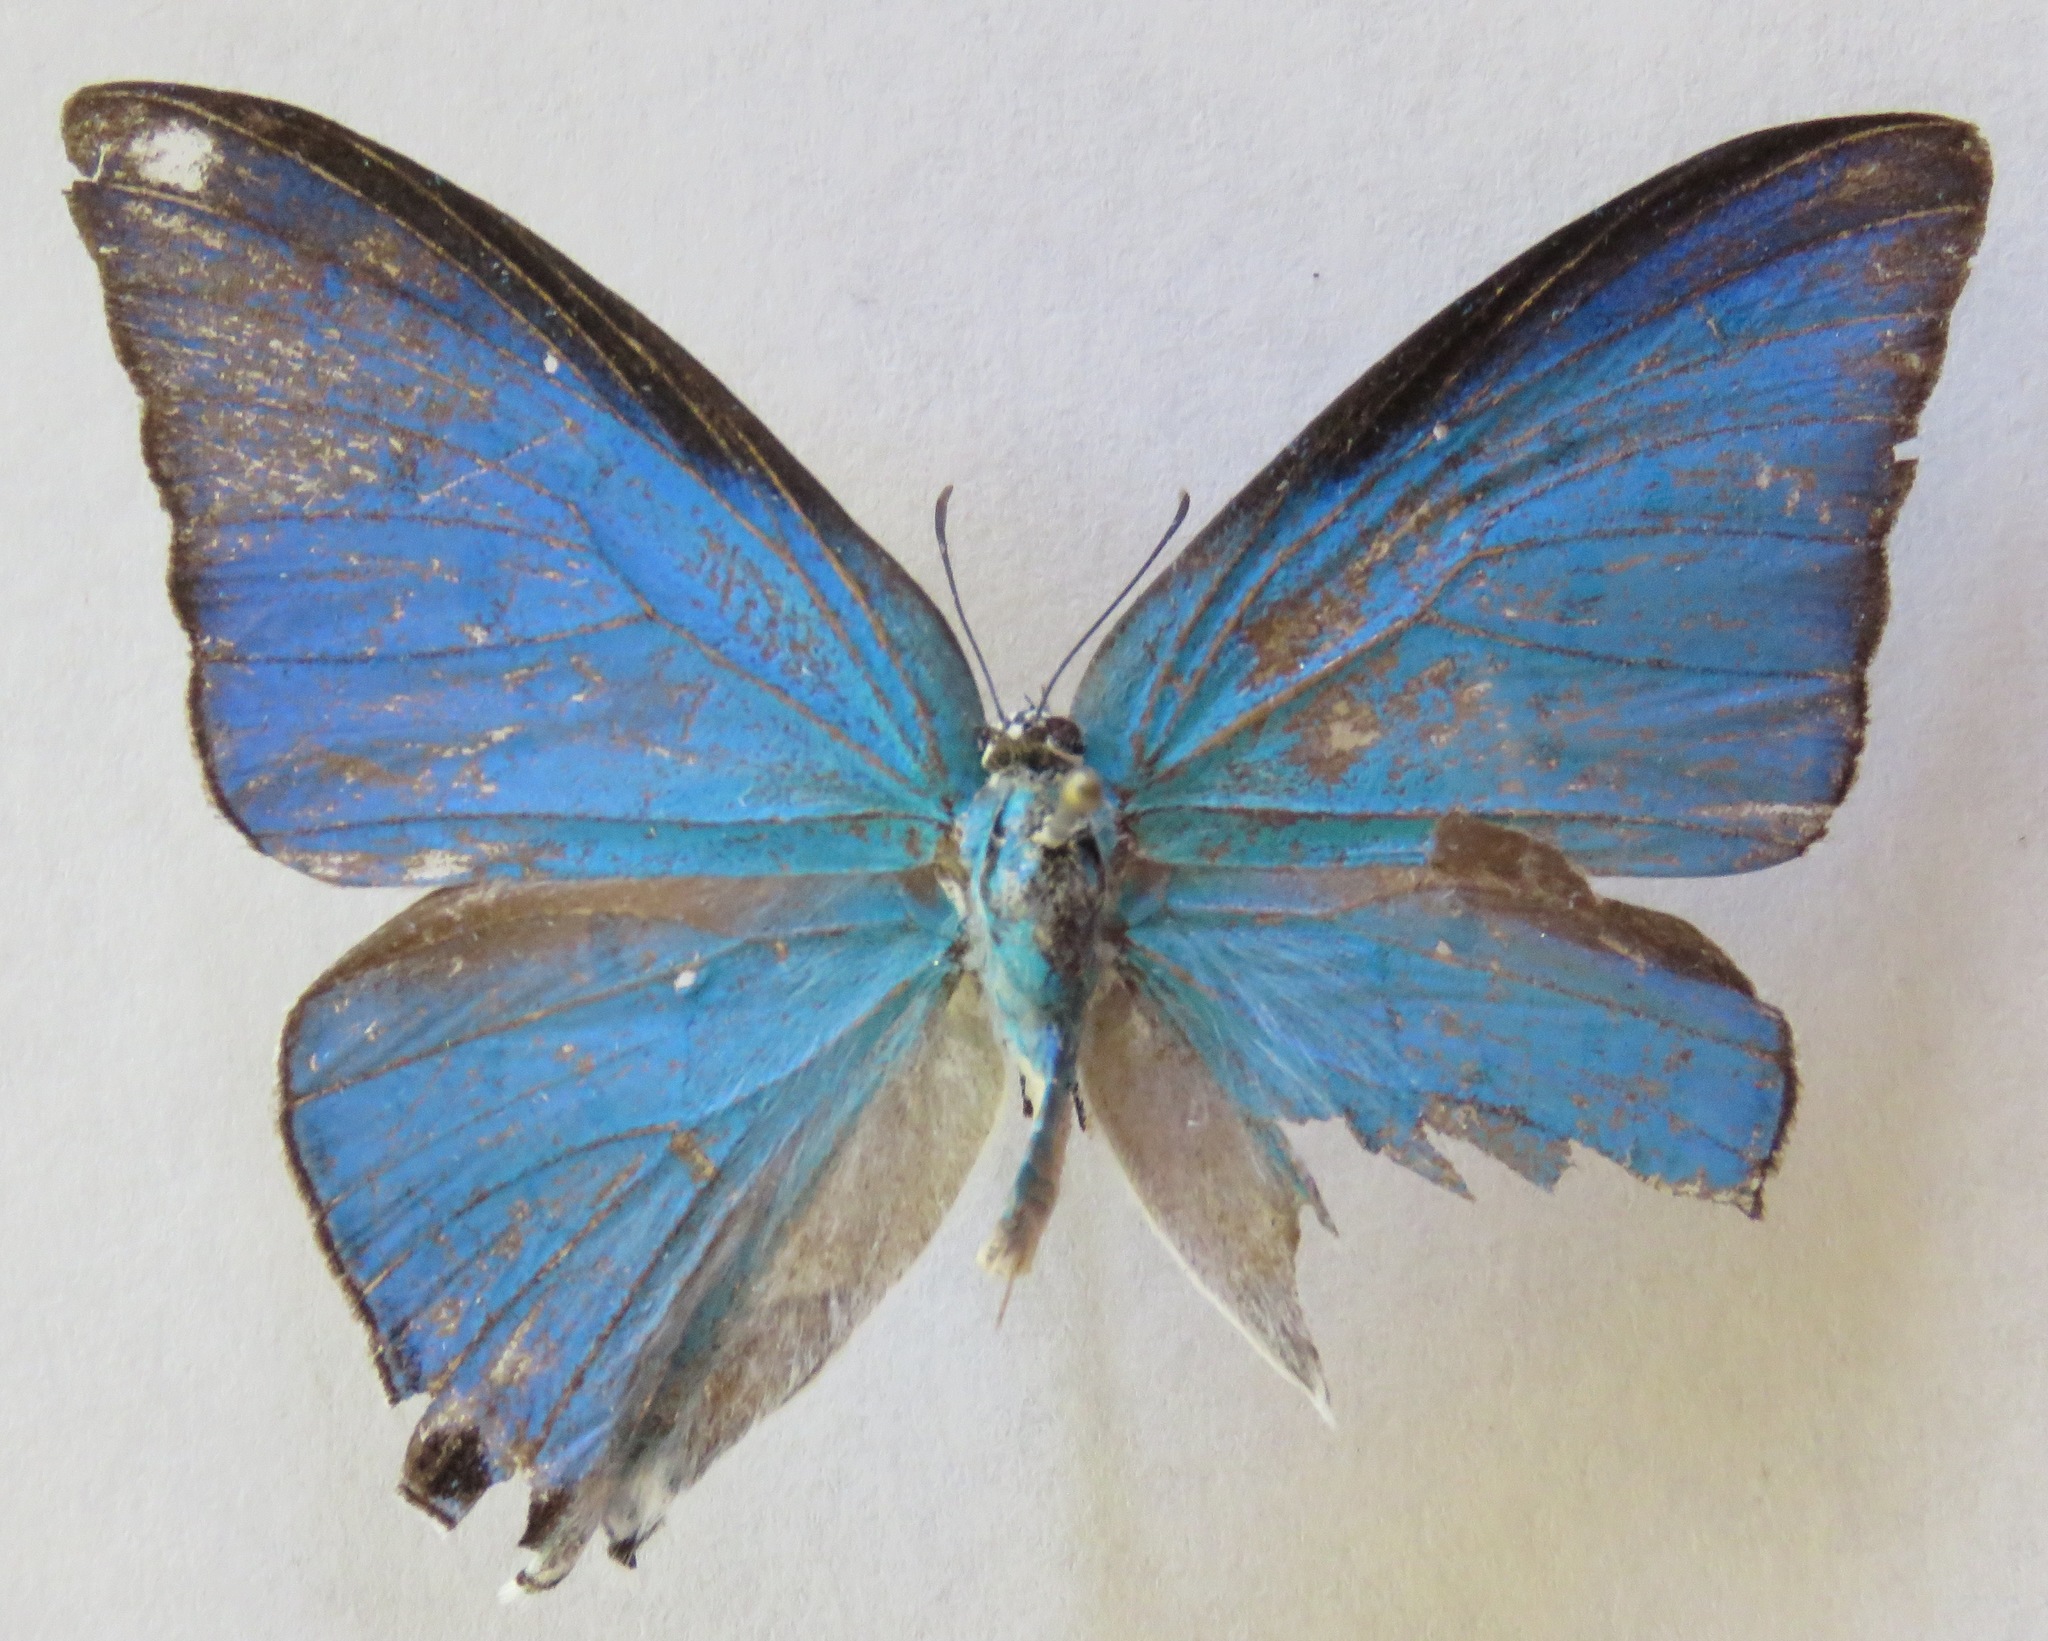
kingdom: Animalia
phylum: Arthropoda
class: Insecta
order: Lepidoptera
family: Lycaenidae
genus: Pseudolycaena
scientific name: Pseudolycaena damo
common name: Sky-blue hairstreak
